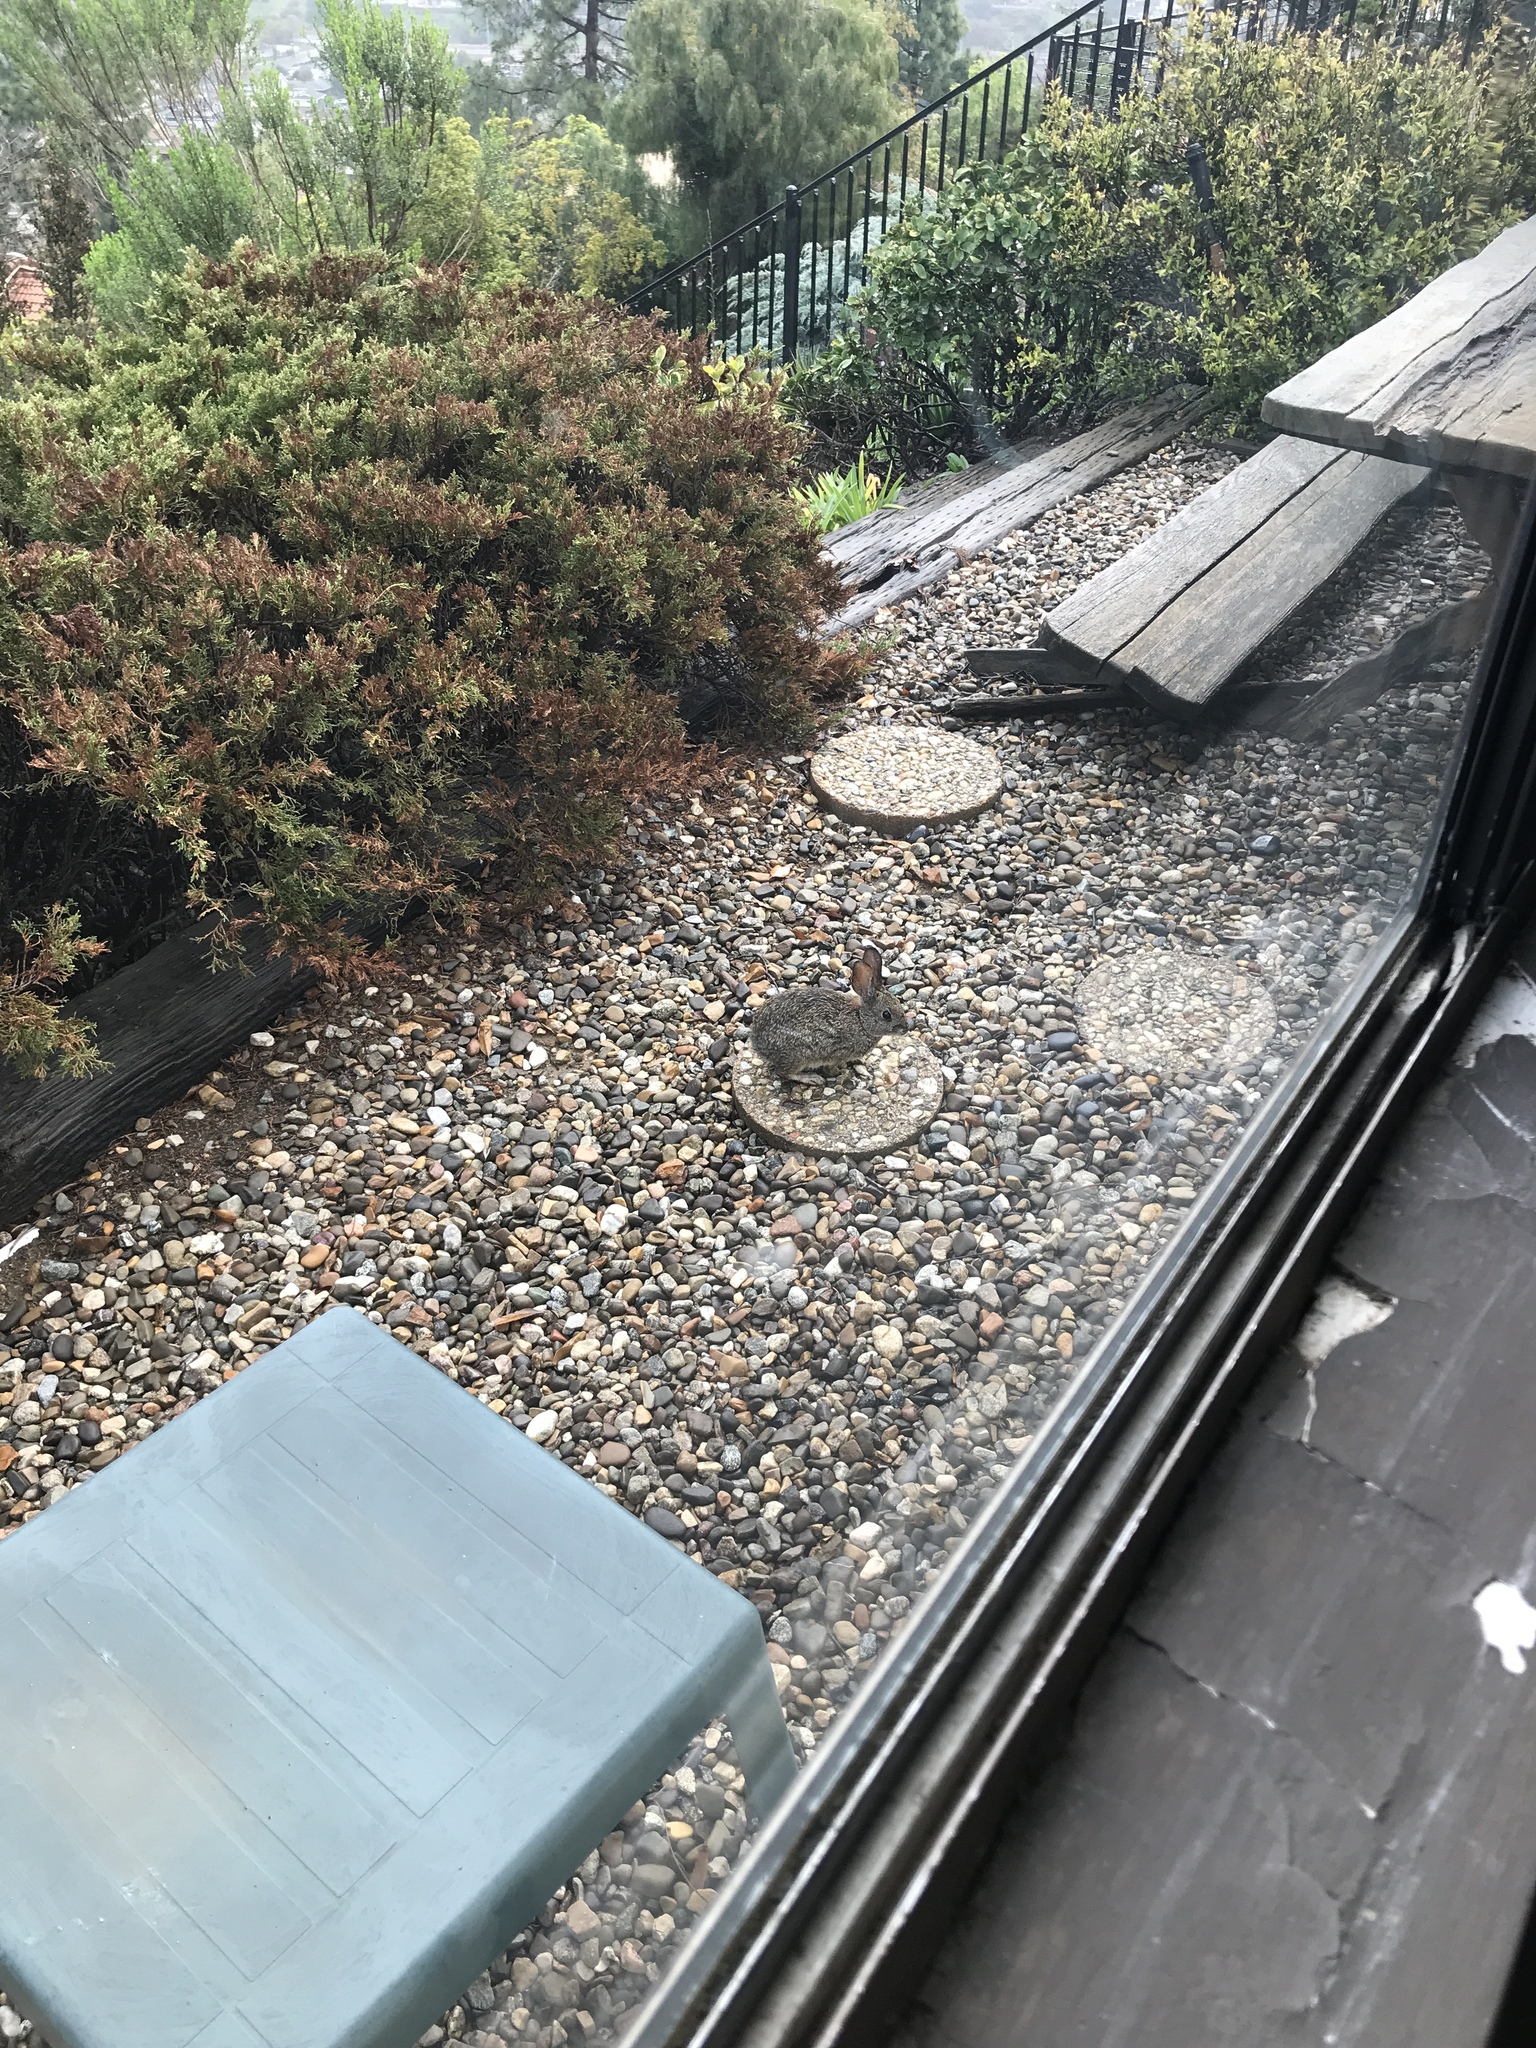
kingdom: Animalia
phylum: Chordata
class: Mammalia
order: Lagomorpha
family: Leporidae
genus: Sylvilagus
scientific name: Sylvilagus audubonii
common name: Desert cottontail
